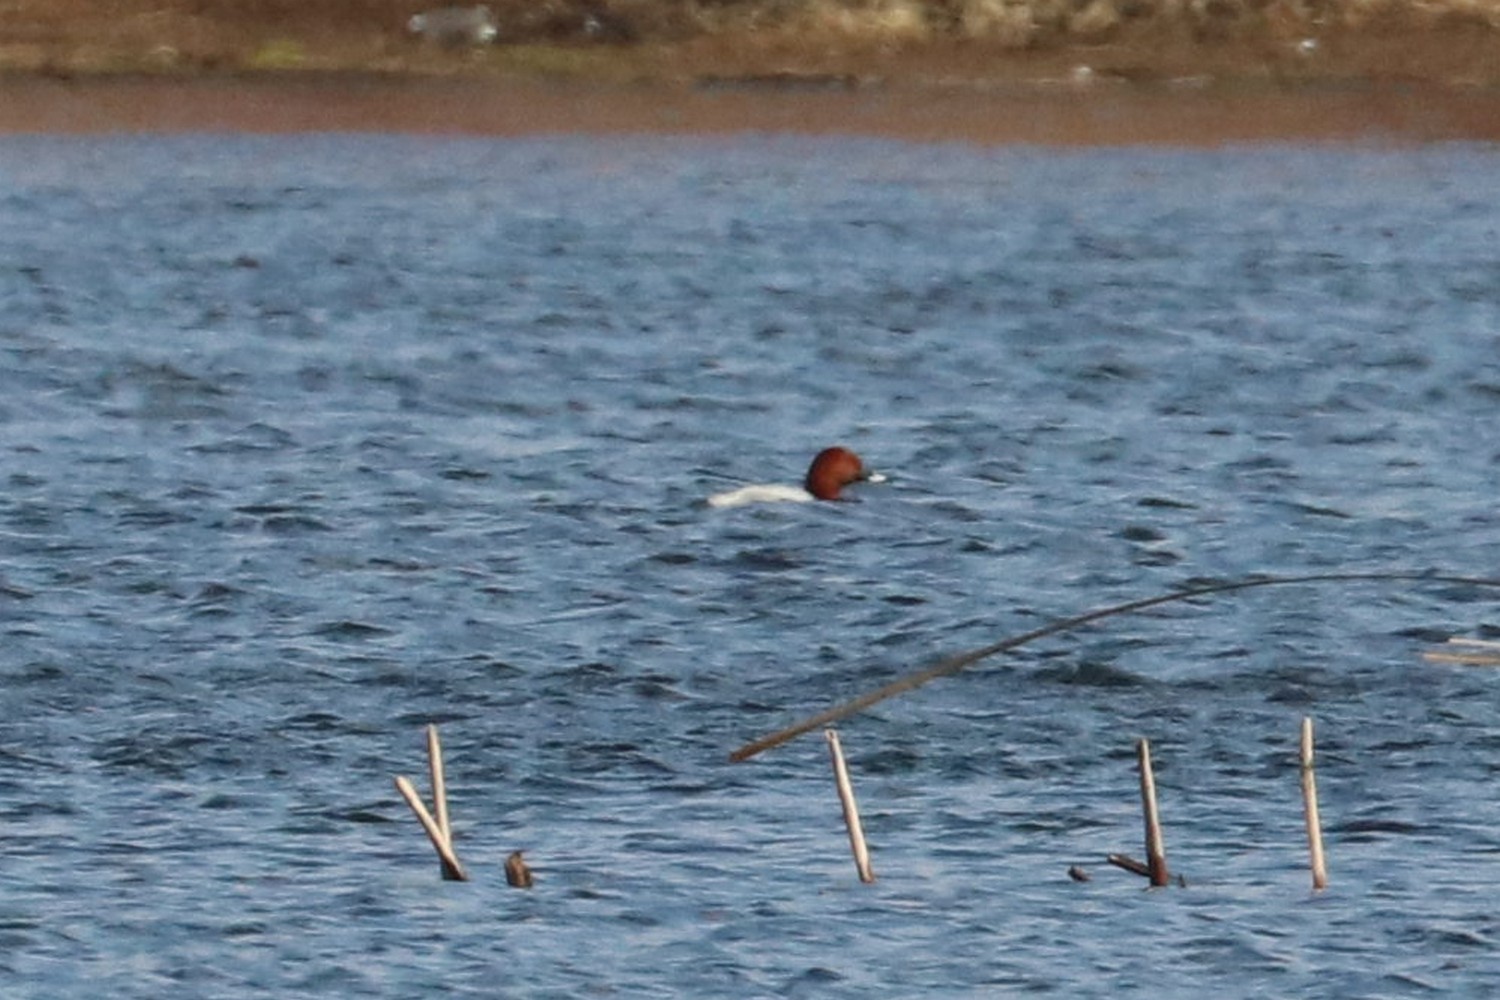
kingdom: Animalia
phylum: Chordata
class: Aves
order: Anseriformes
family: Anatidae
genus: Aythya
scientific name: Aythya ferina
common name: Common pochard
